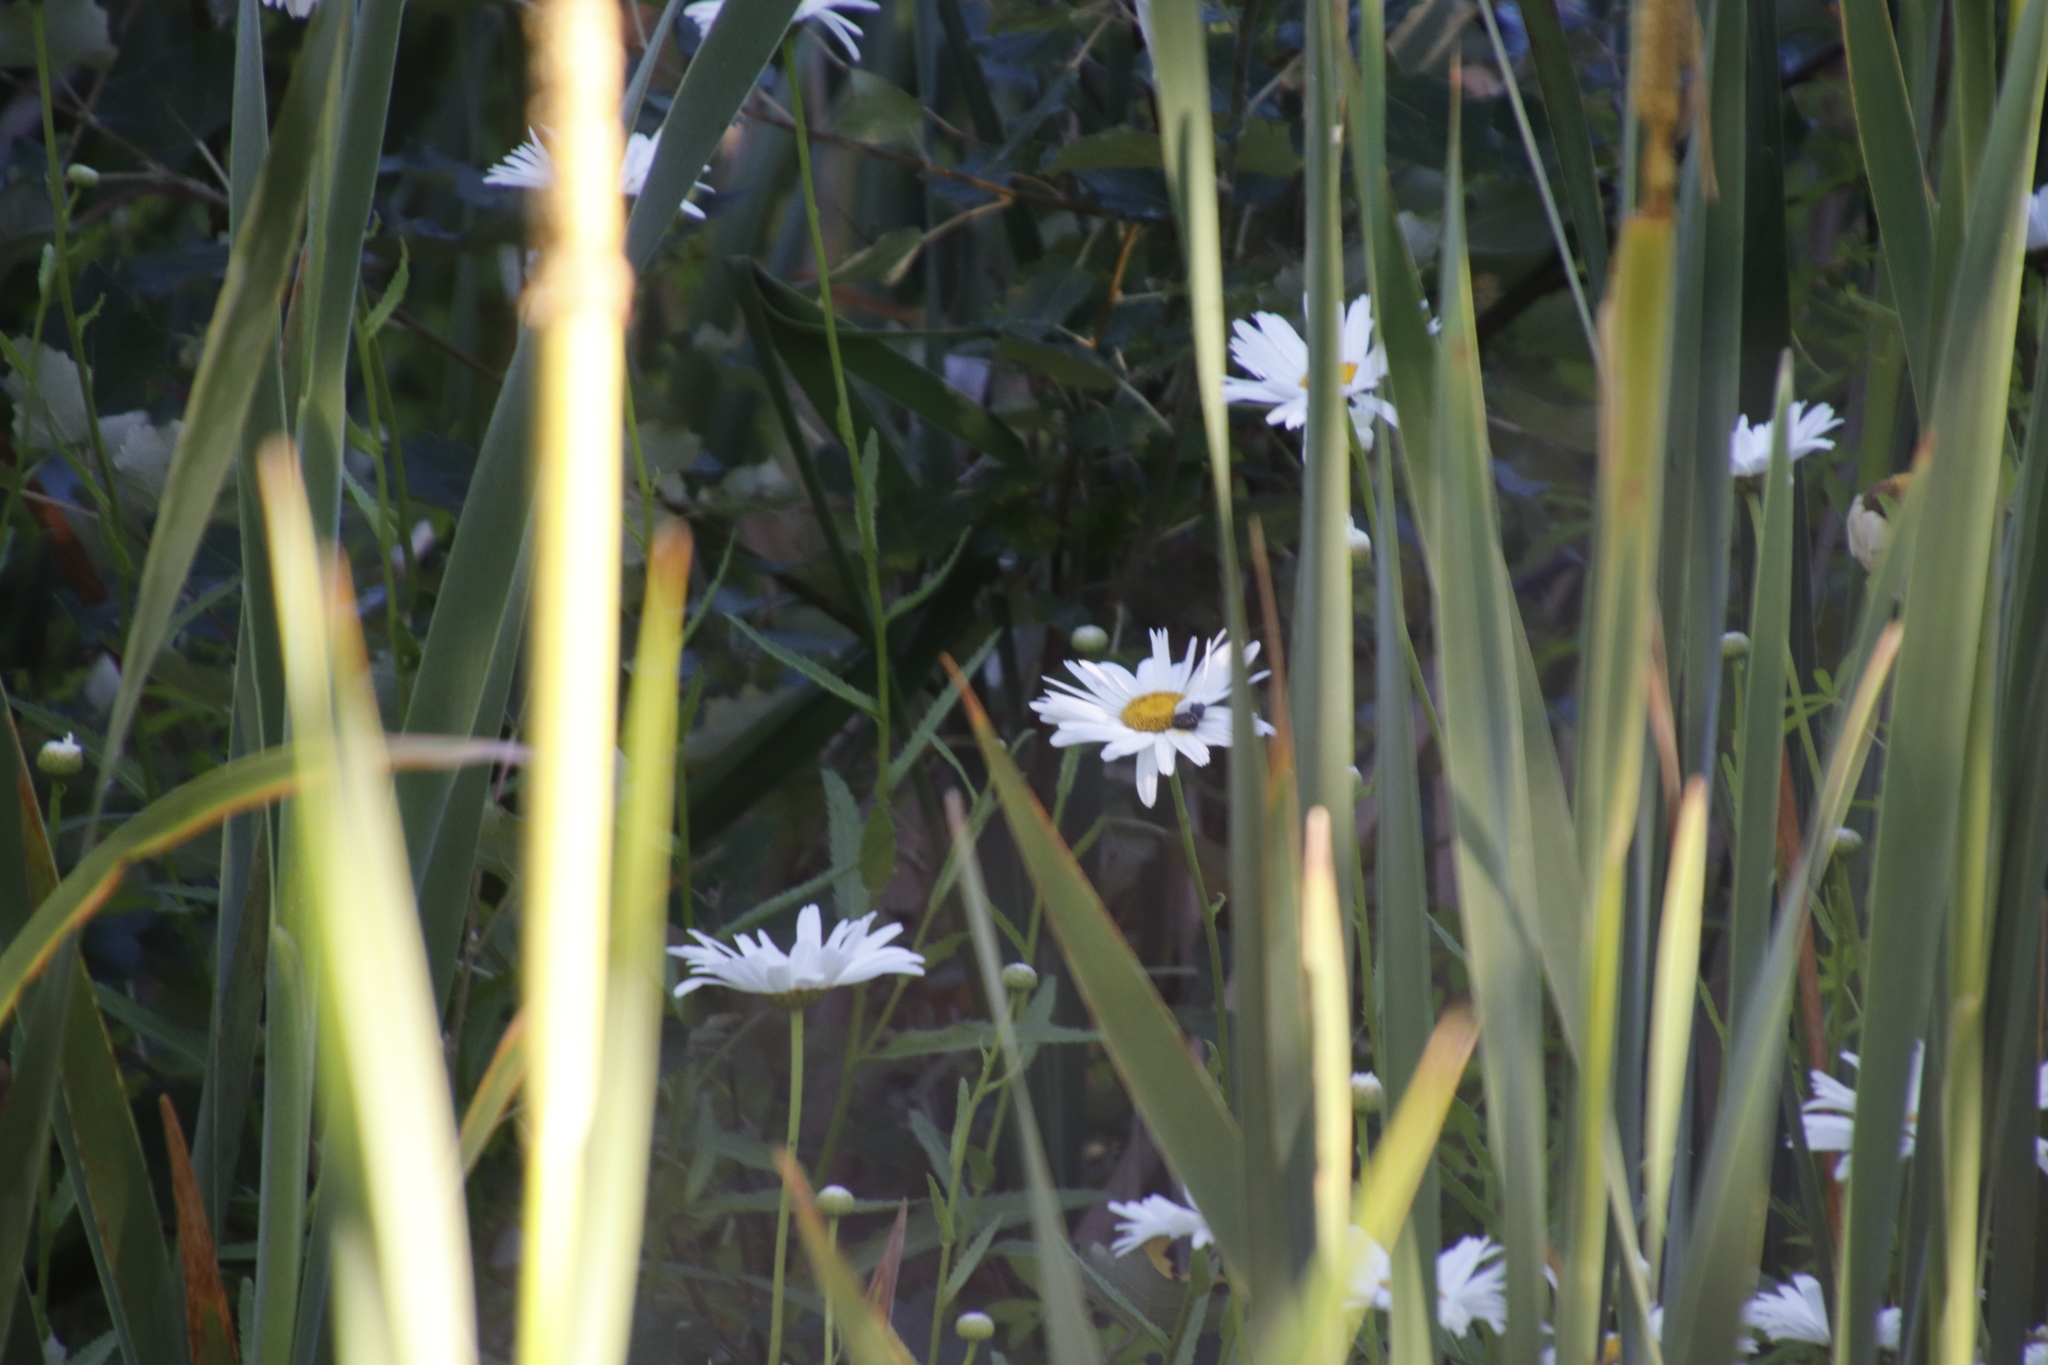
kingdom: Plantae
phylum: Tracheophyta
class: Magnoliopsida
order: Asterales
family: Asteraceae
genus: Leucanthemum
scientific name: Leucanthemum maximum
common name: Max chrysanthemum
